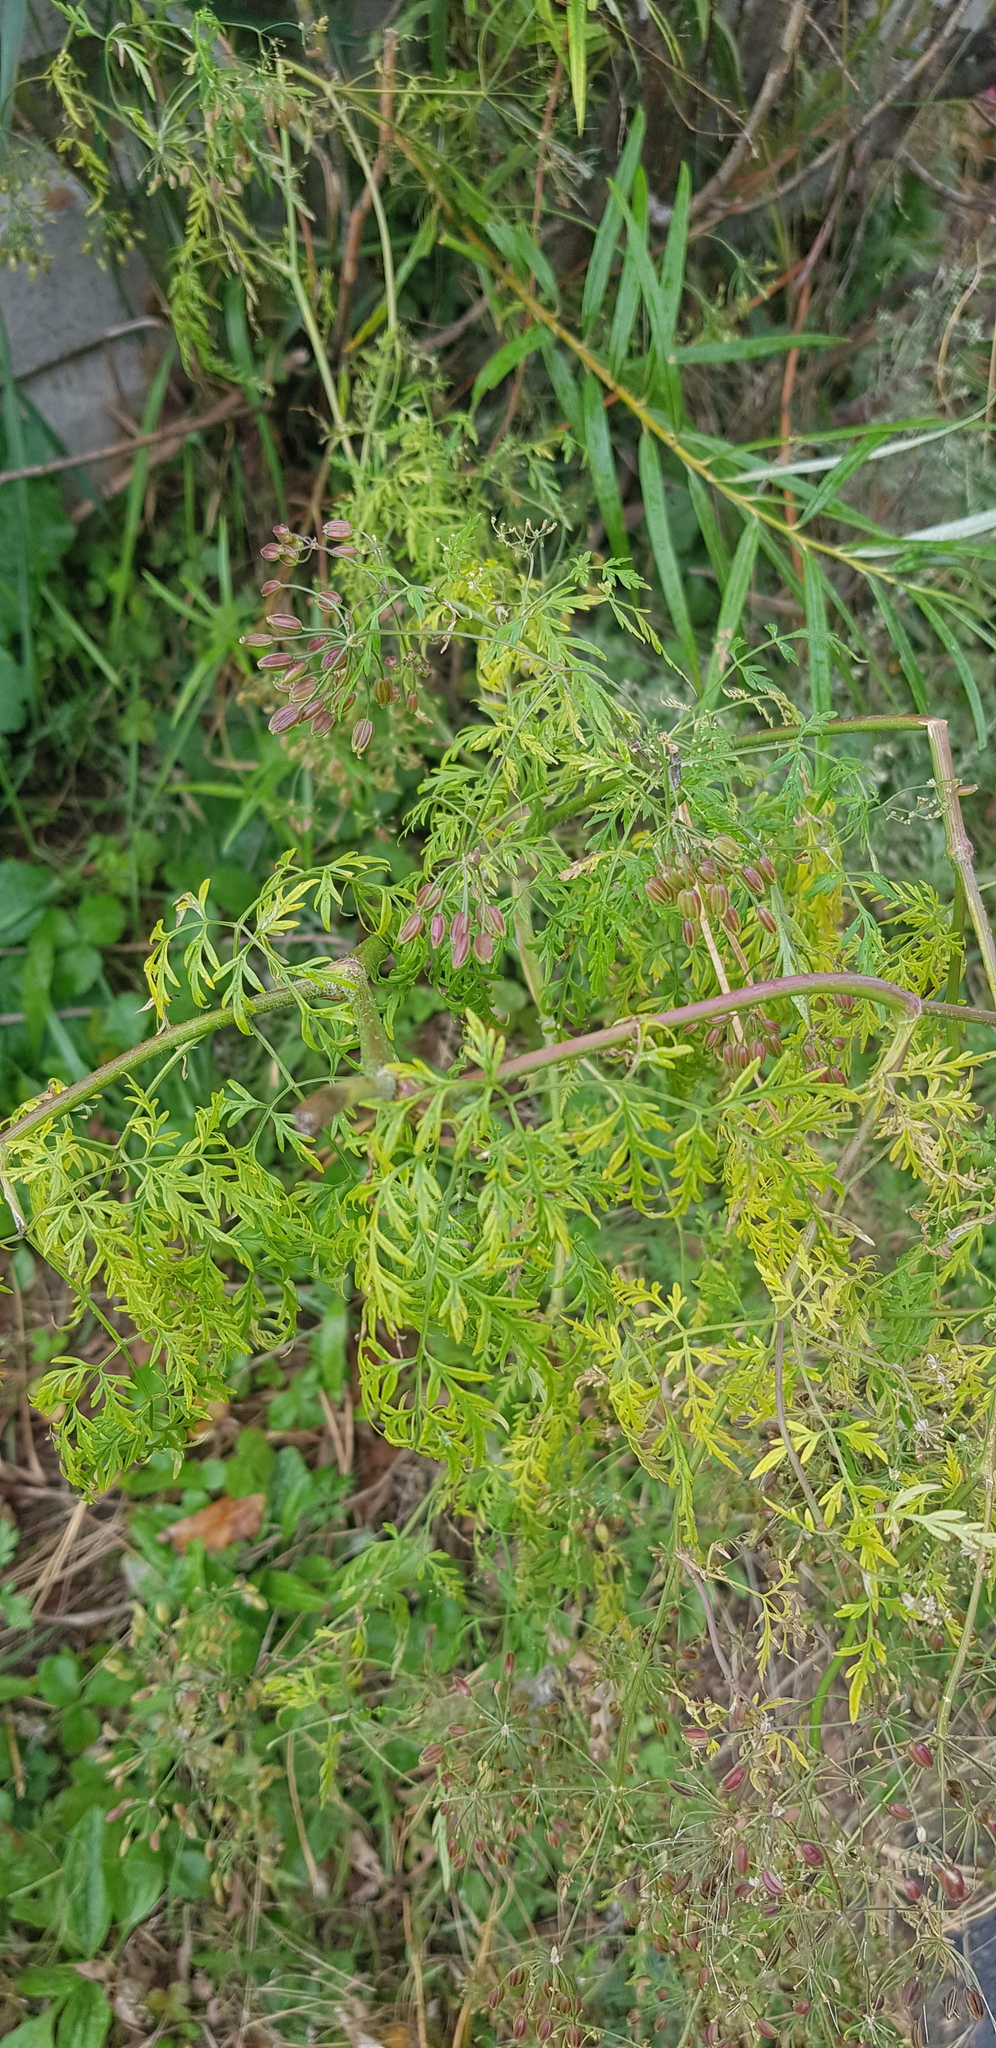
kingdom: Plantae
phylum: Tracheophyta
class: Magnoliopsida
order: Apiales
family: Apiaceae
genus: Sphallerocarpus
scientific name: Sphallerocarpus gracilis
